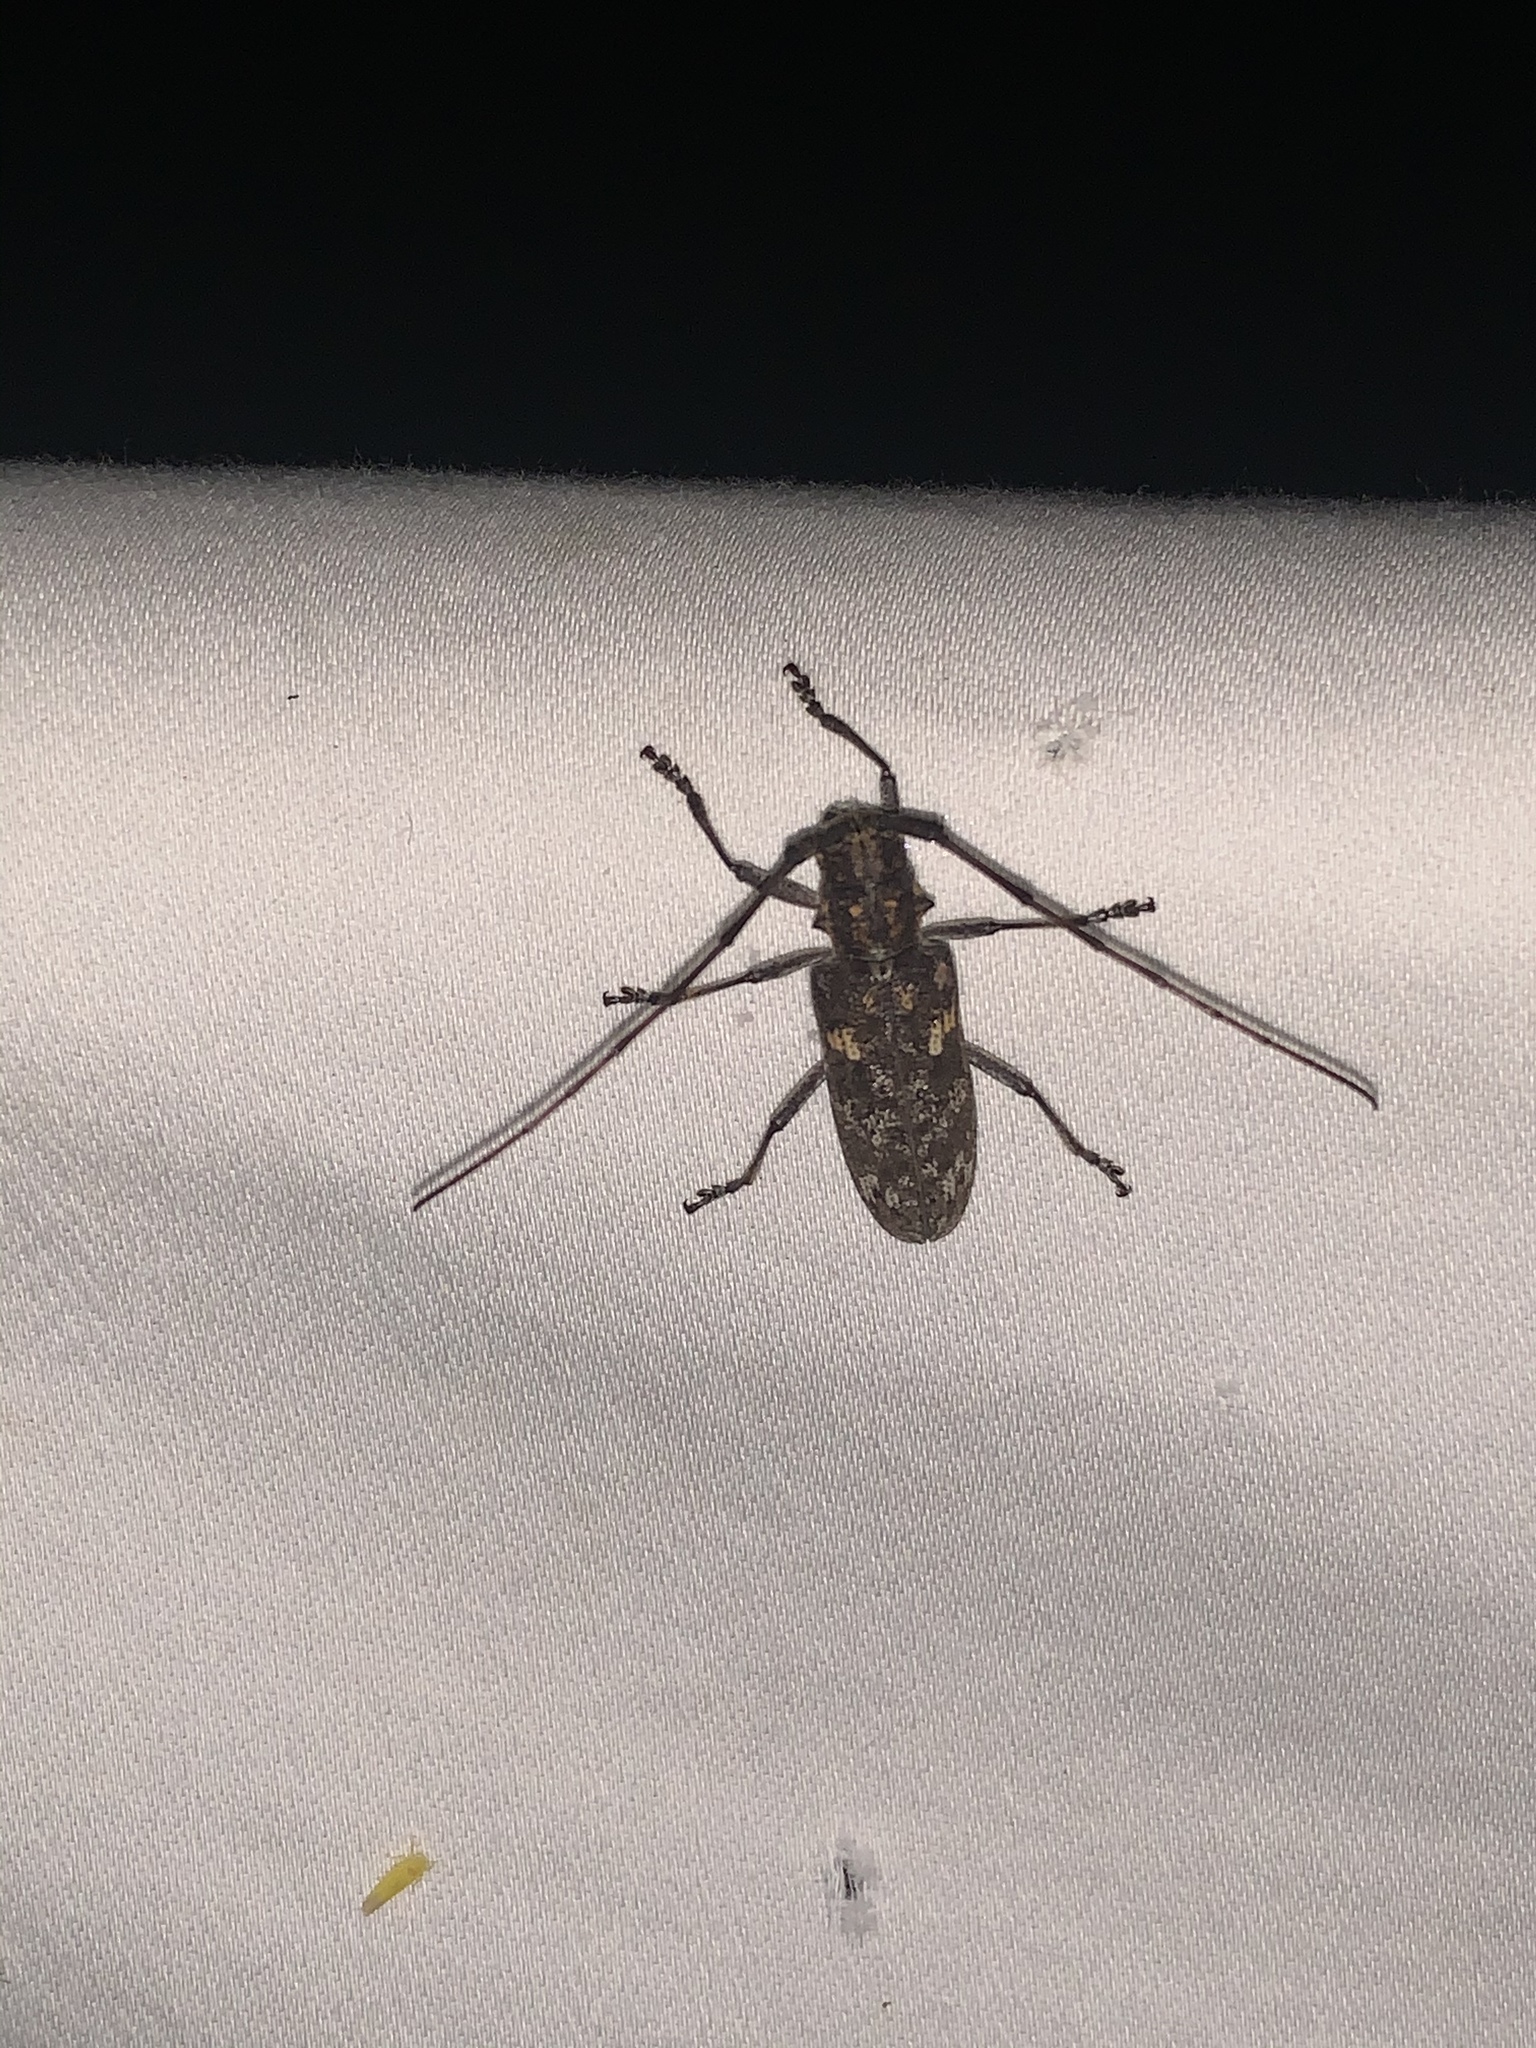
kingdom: Animalia
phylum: Arthropoda
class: Insecta
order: Coleoptera
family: Cerambycidae
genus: Monochamus
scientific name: Monochamus carolinensis
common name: Carolina pine sawyer
